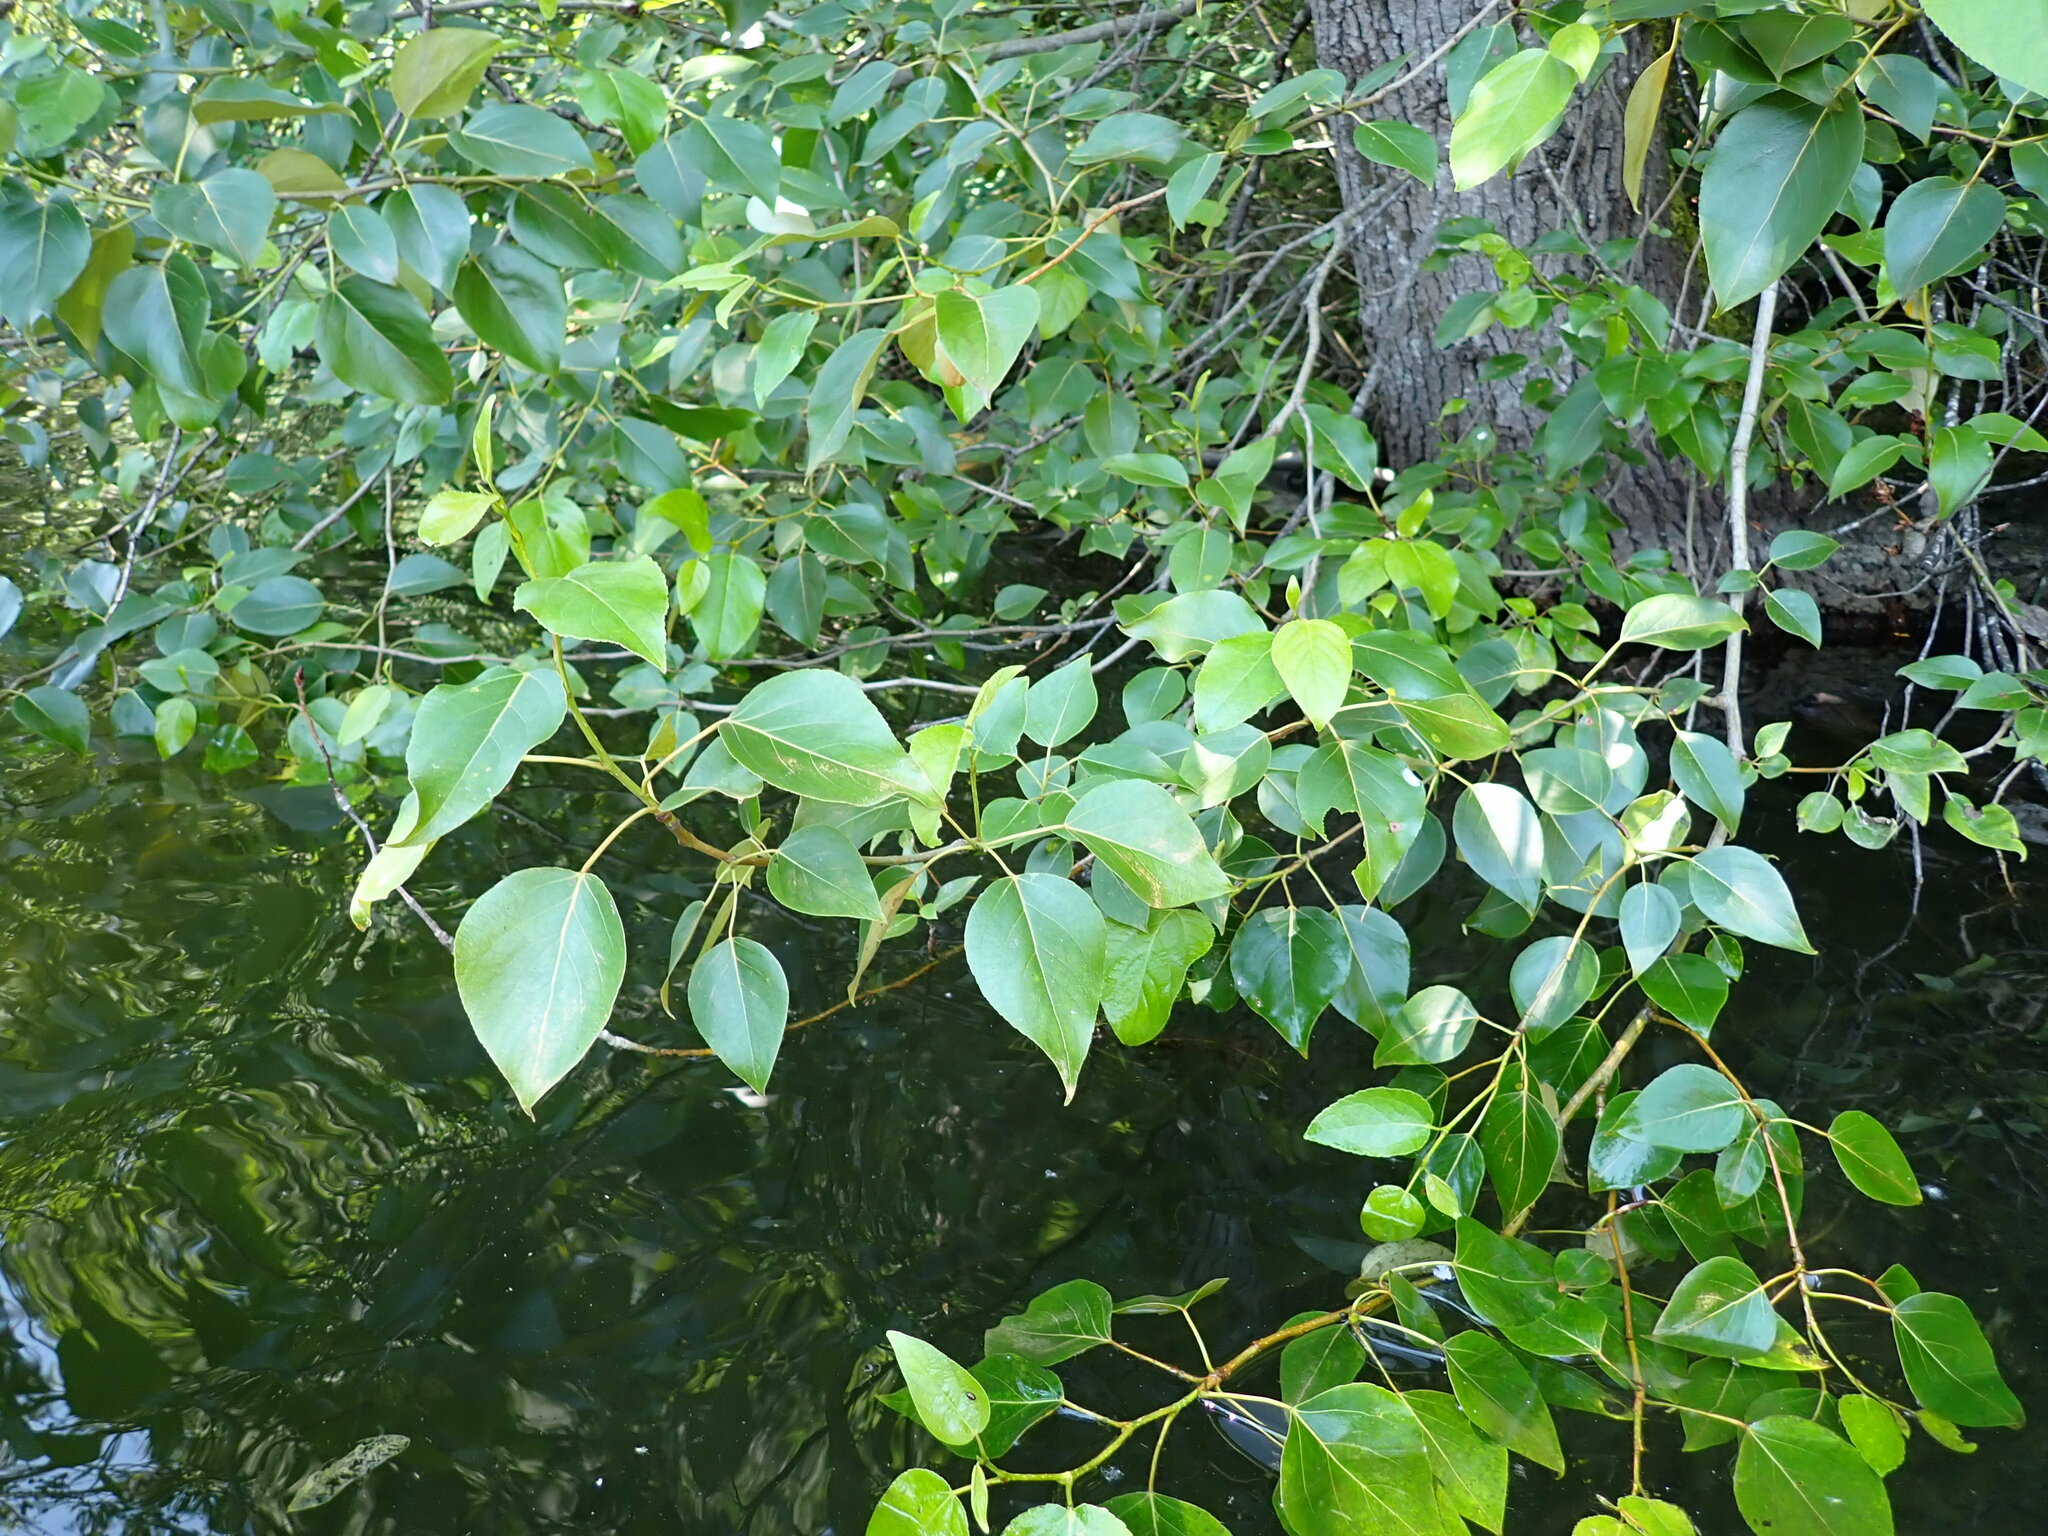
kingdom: Plantae
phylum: Tracheophyta
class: Magnoliopsida
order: Malpighiales
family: Salicaceae
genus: Populus
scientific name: Populus trichocarpa
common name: Black cottonwood
